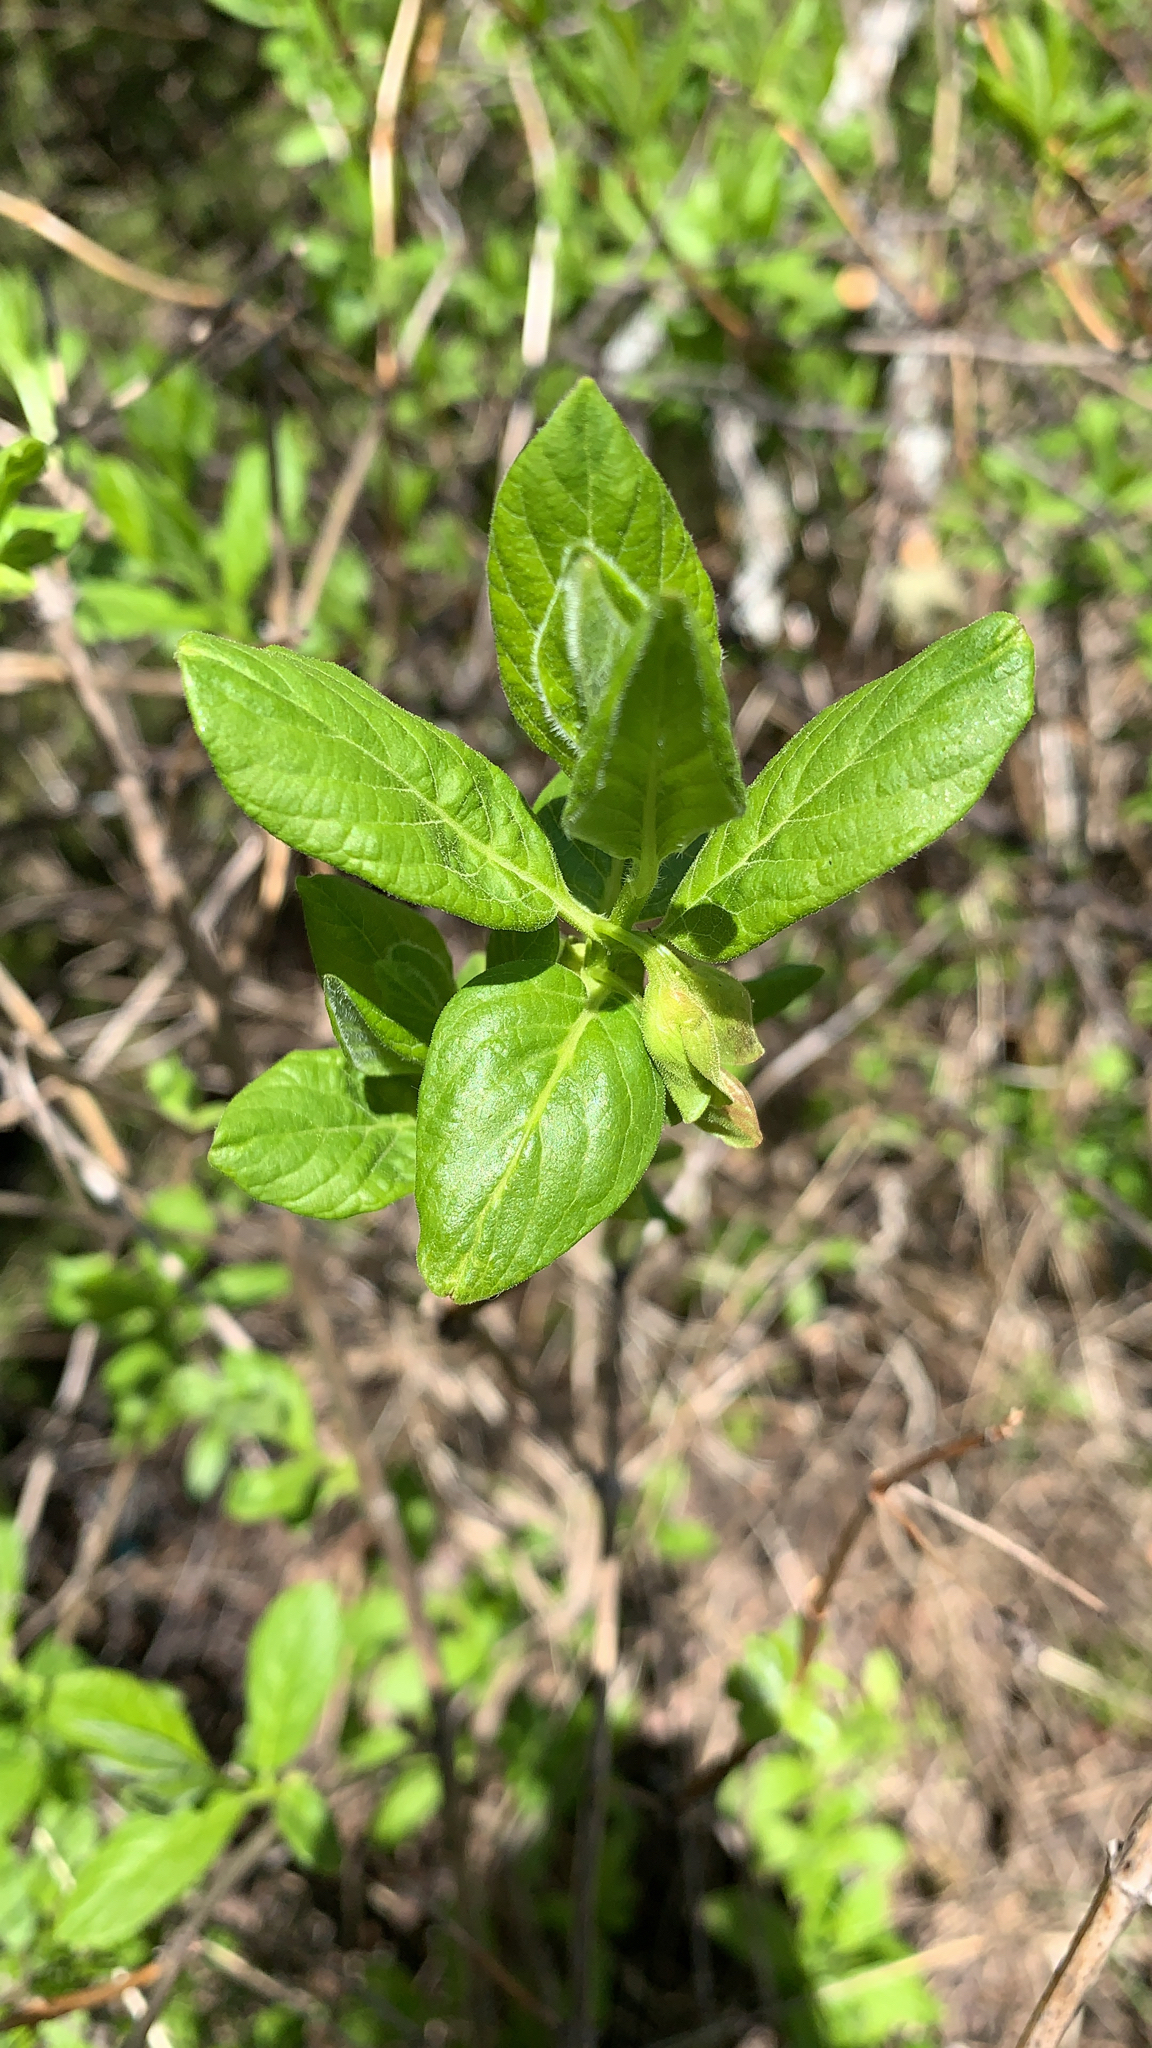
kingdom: Plantae
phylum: Tracheophyta
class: Magnoliopsida
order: Dipsacales
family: Caprifoliaceae
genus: Lonicera
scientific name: Lonicera involucrata
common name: Californian honeysuckle
